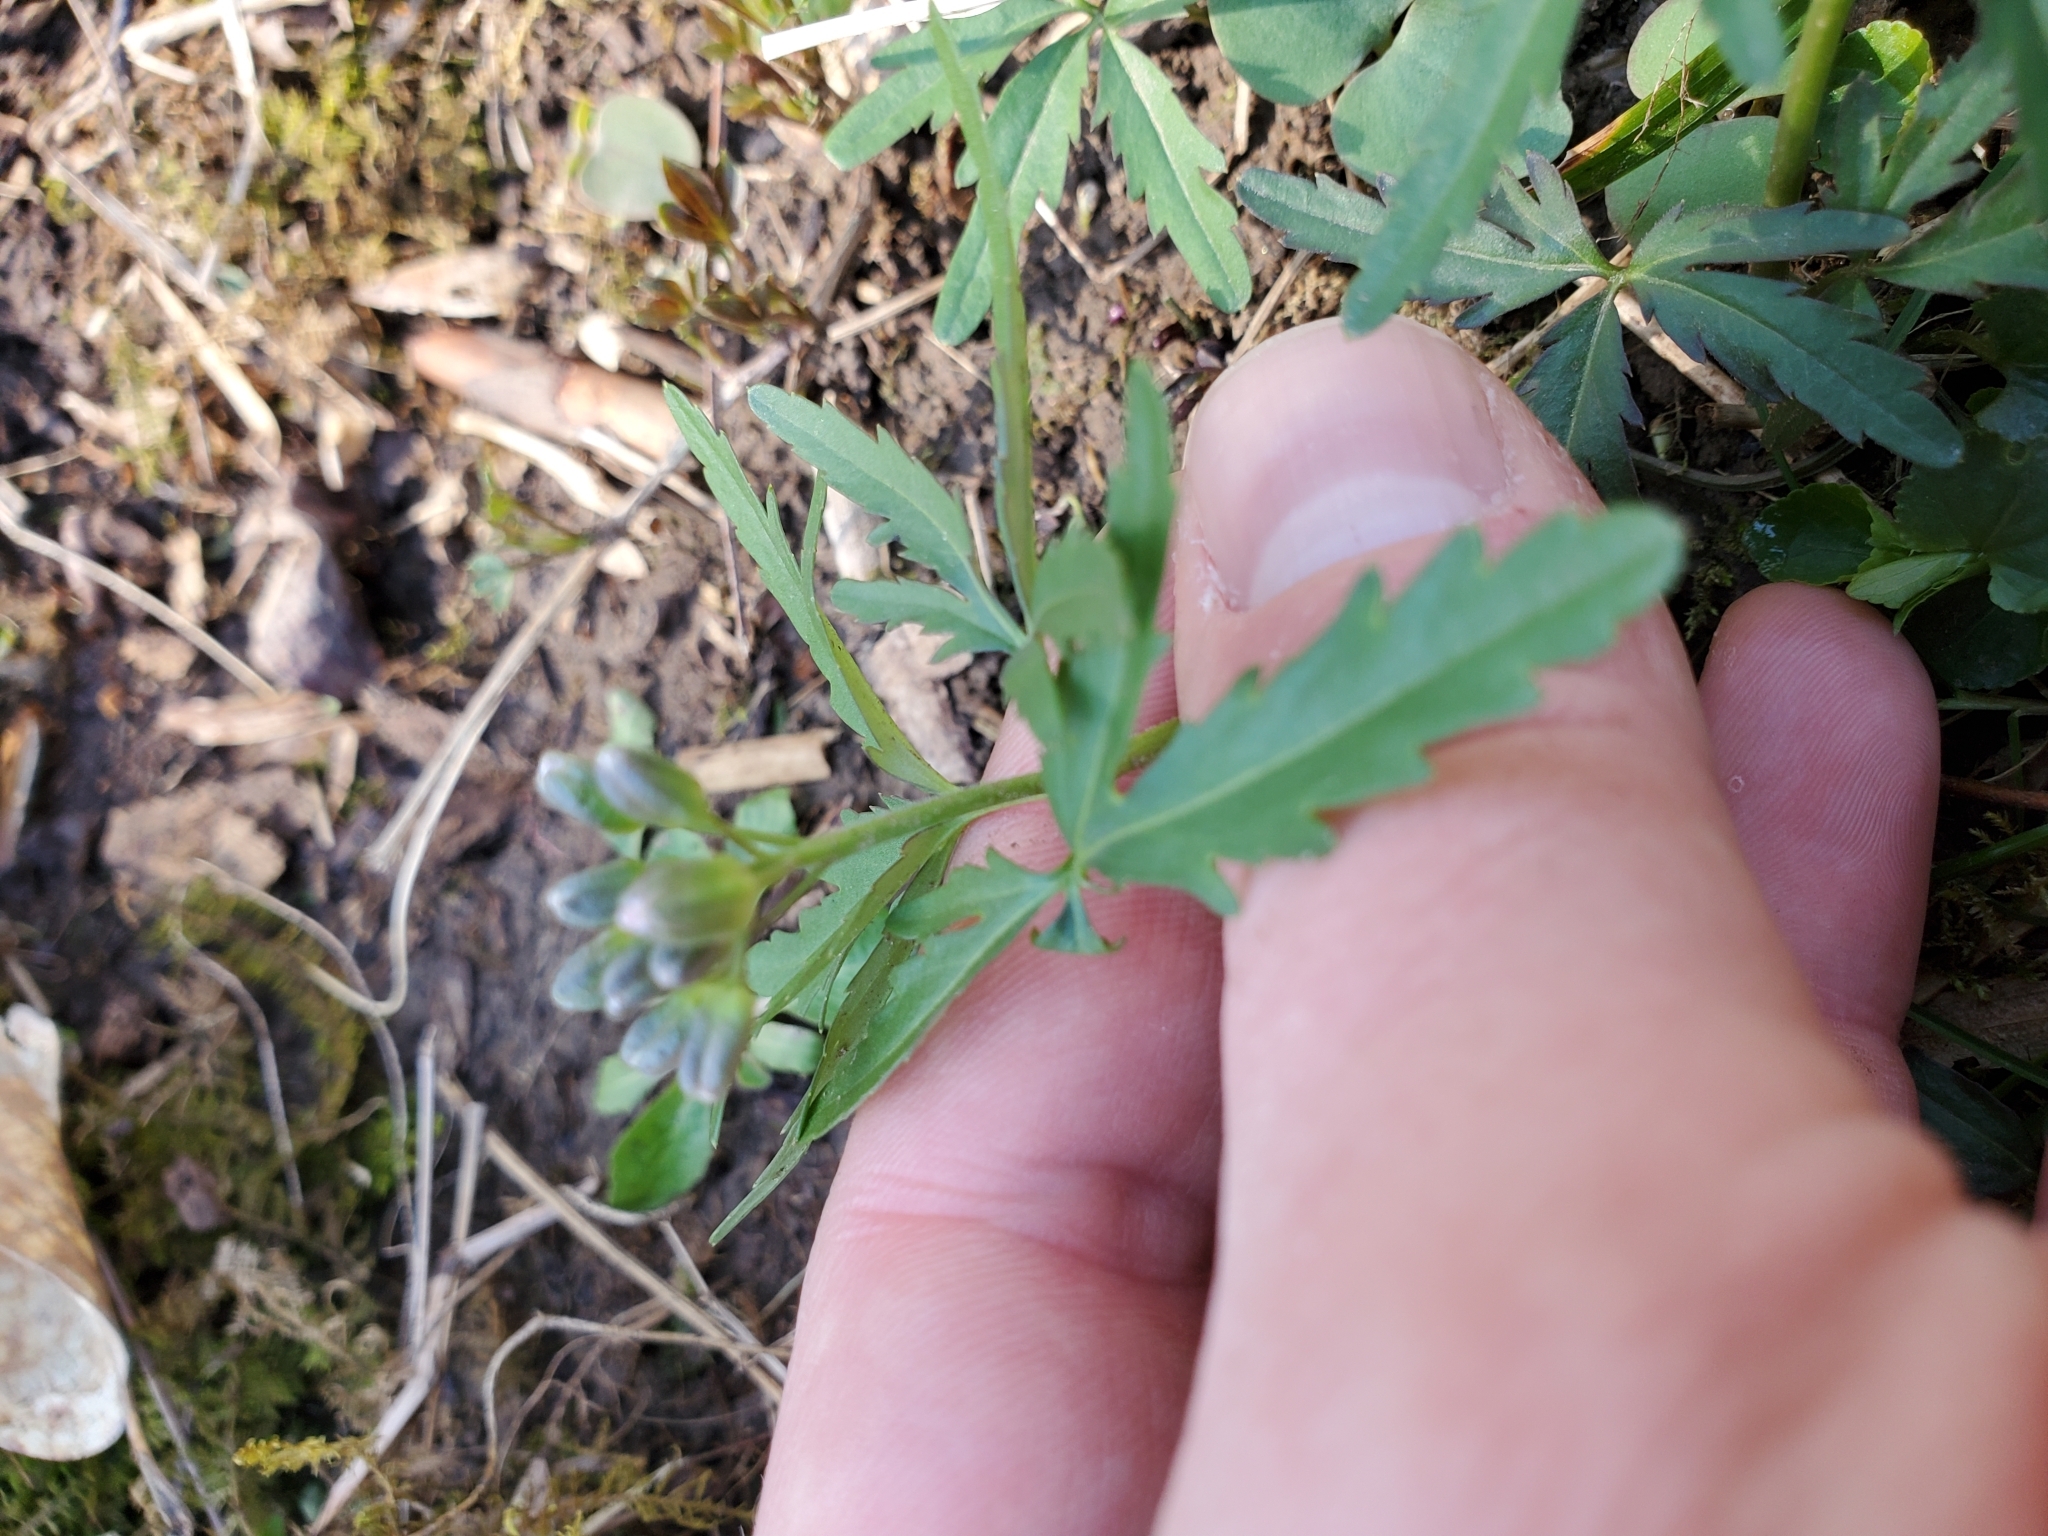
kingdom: Plantae
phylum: Tracheophyta
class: Magnoliopsida
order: Brassicales
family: Brassicaceae
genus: Cardamine
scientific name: Cardamine concatenata
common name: Cut-leaf toothcup
